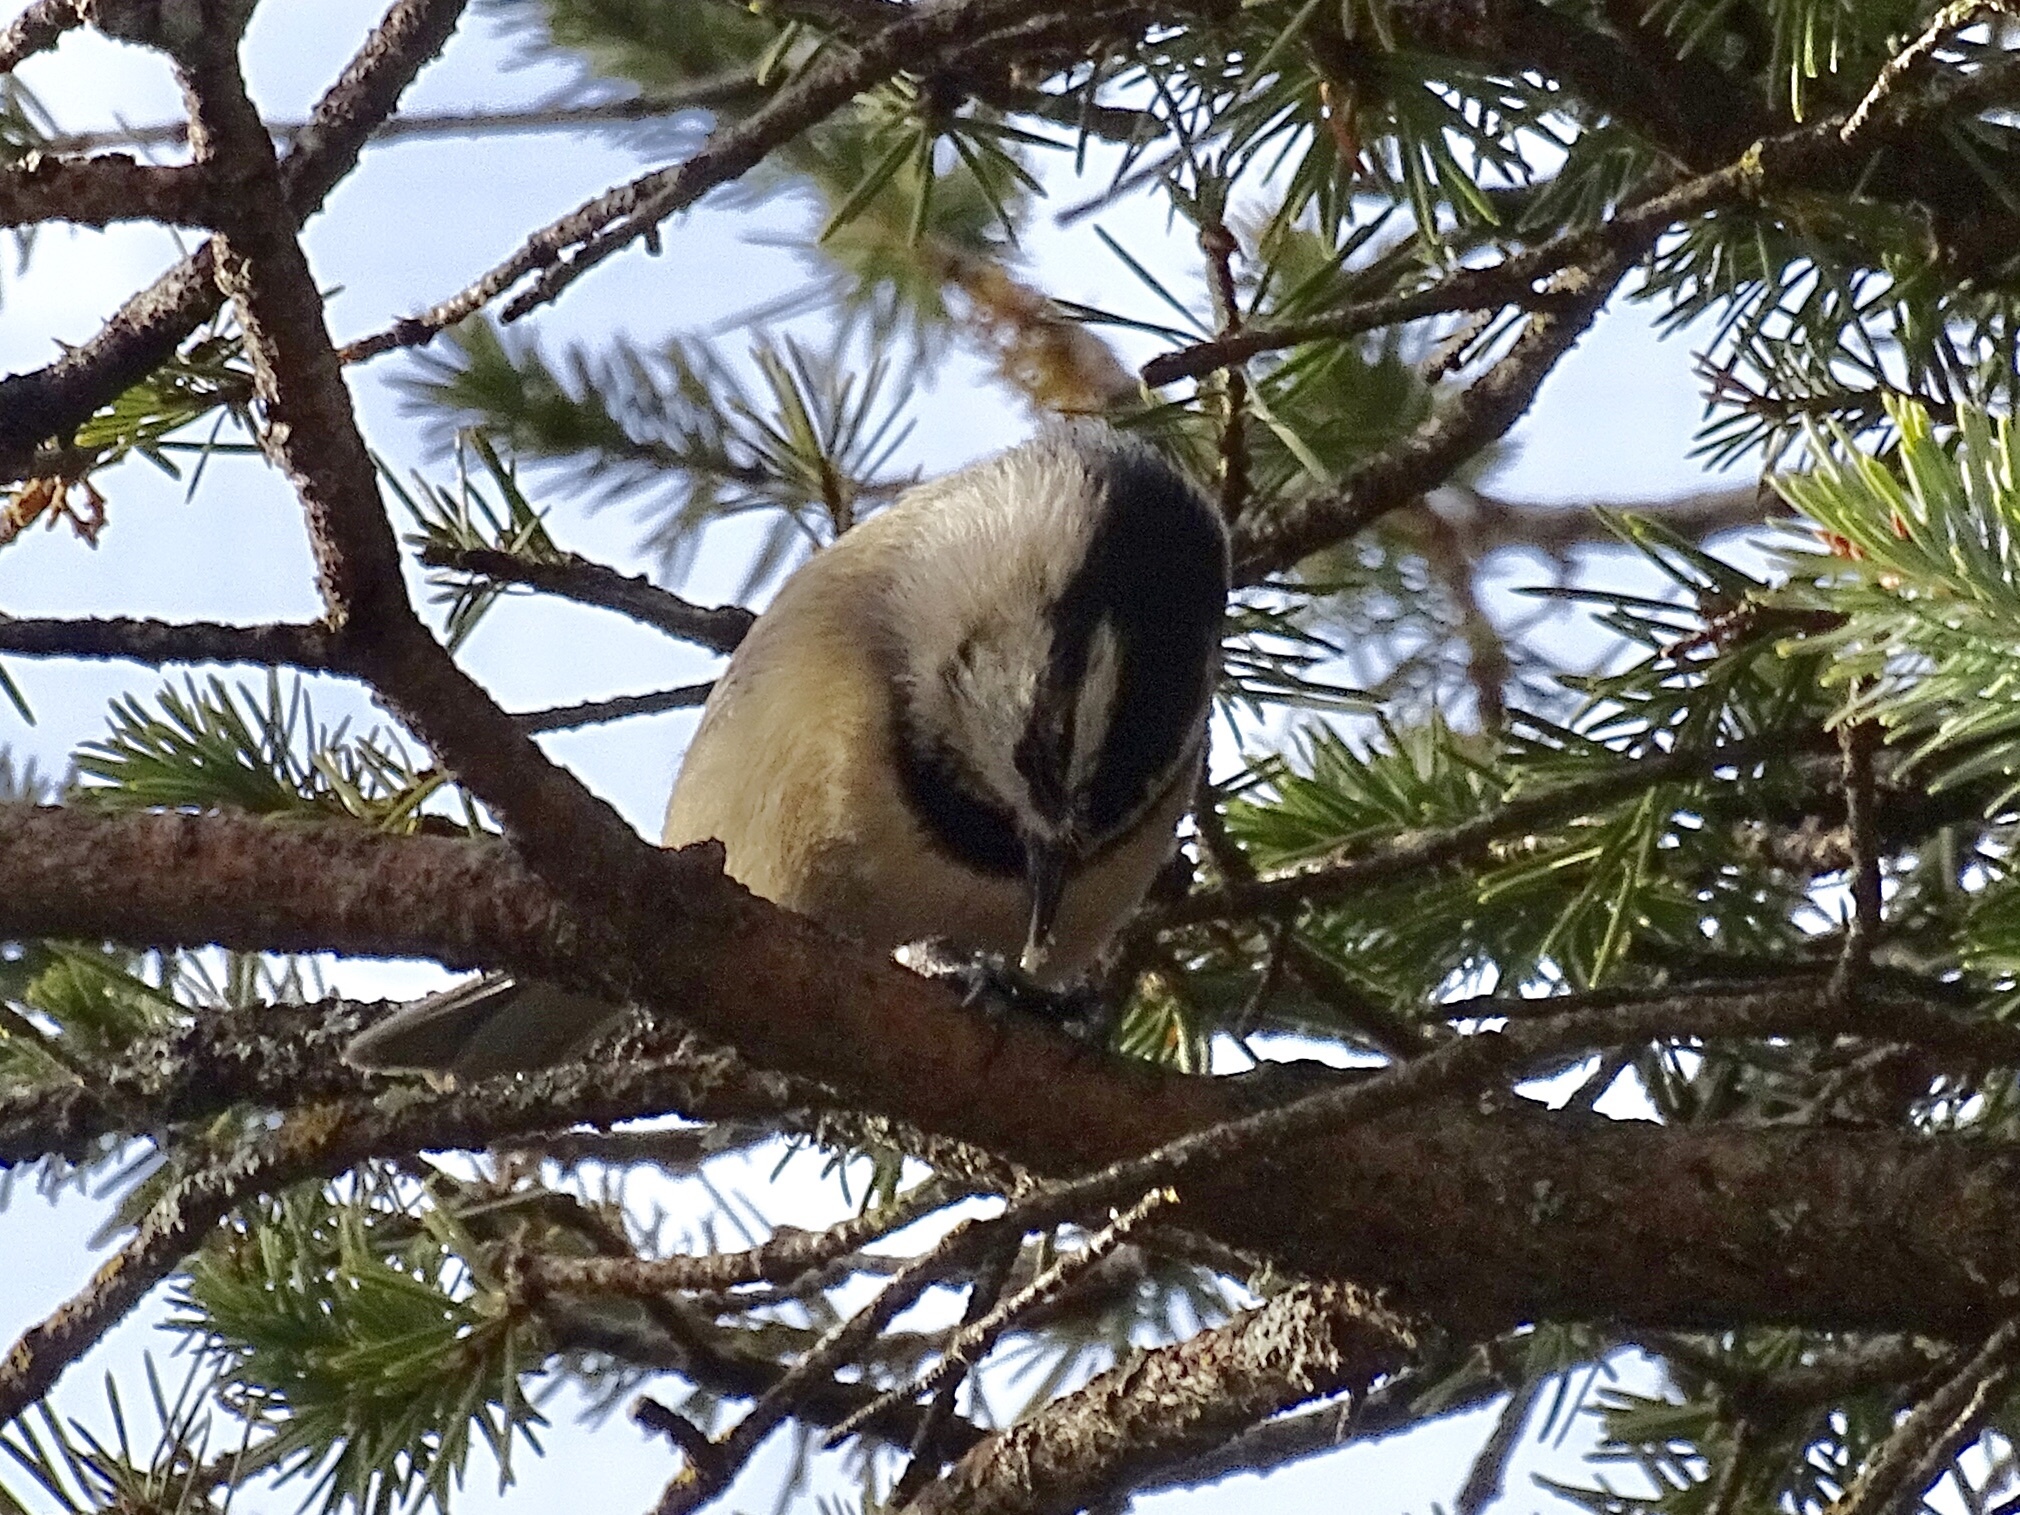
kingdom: Animalia
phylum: Chordata
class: Aves
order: Passeriformes
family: Paridae
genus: Poecile
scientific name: Poecile gambeli
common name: Mountain chickadee
